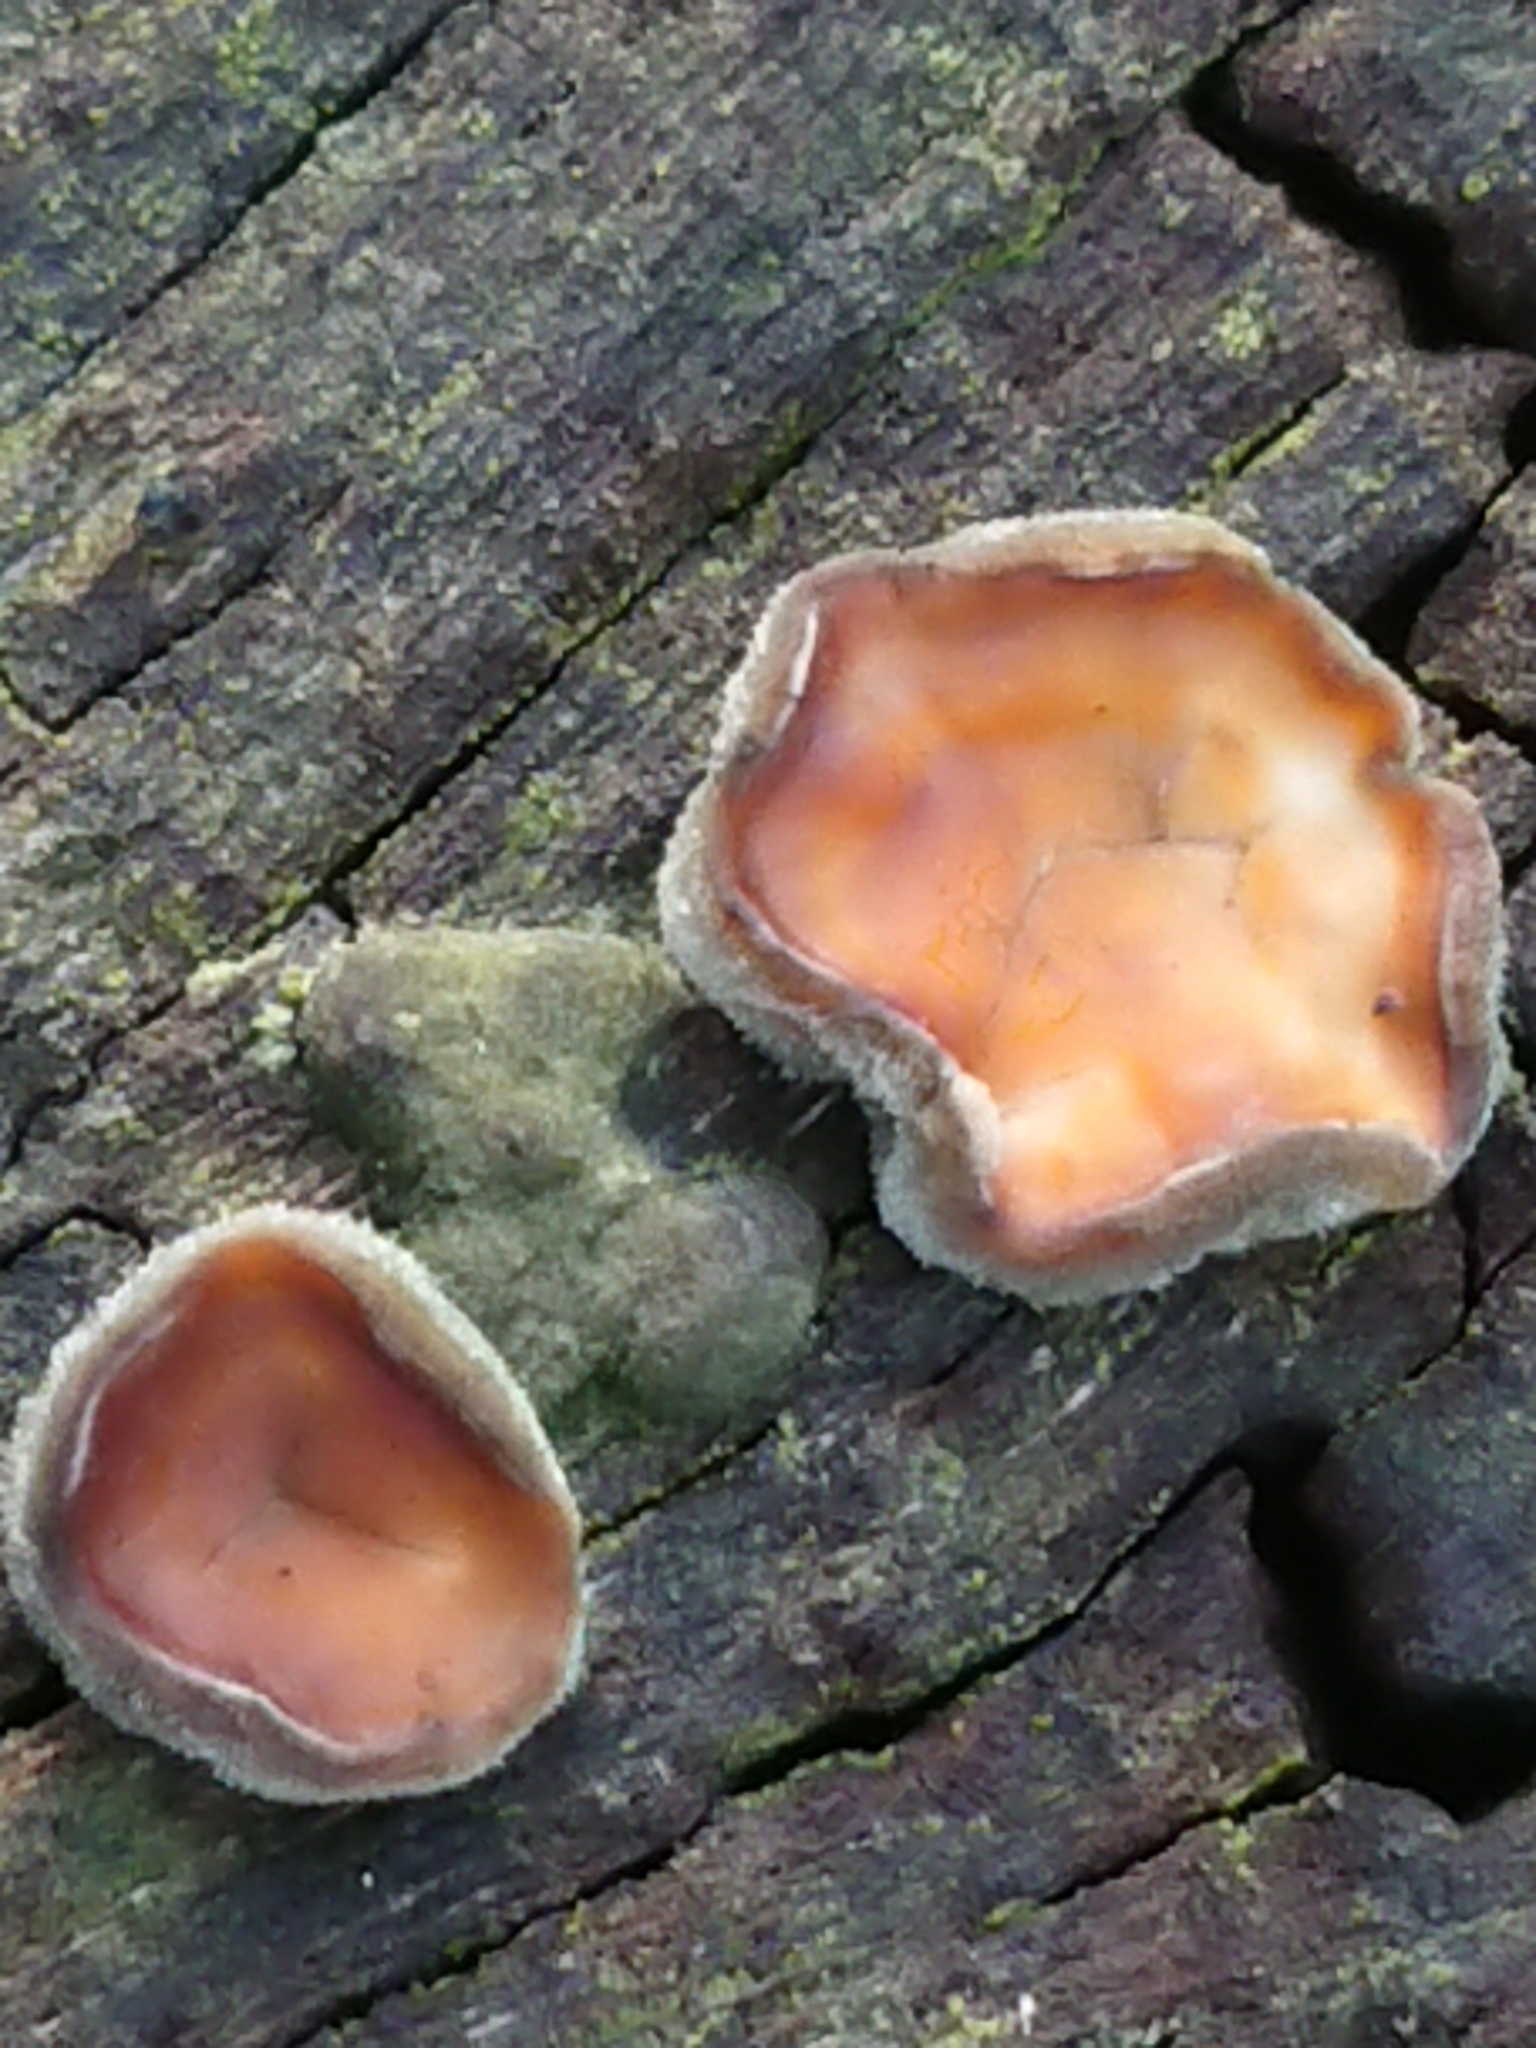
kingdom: Fungi
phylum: Basidiomycota
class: Agaricomycetes
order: Auriculariales
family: Auriculariaceae
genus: Auricularia
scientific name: Auricularia cornea
